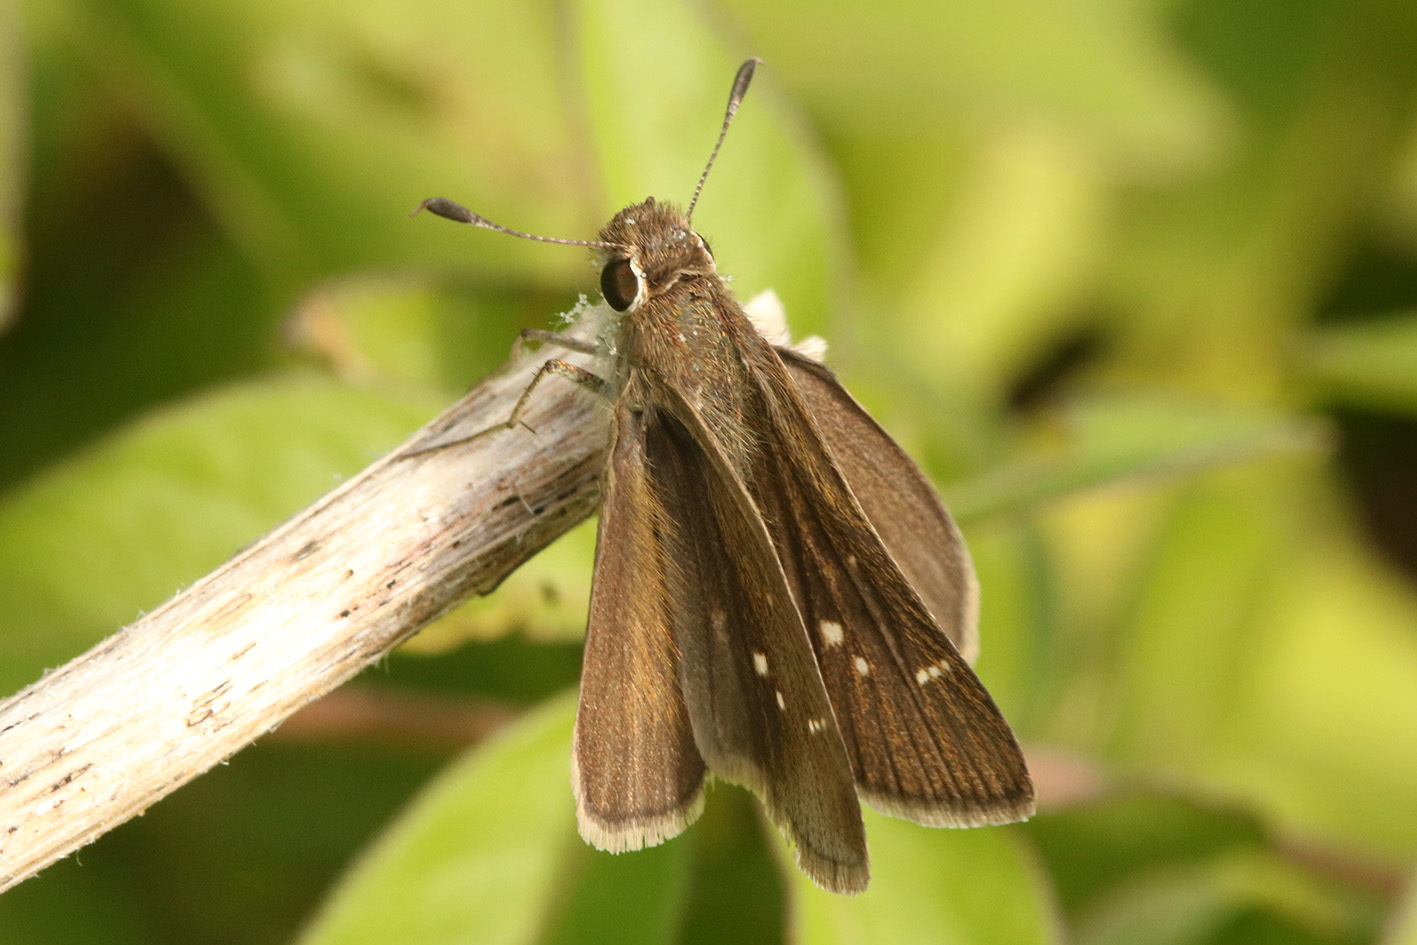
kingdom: Animalia
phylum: Arthropoda
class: Insecta
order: Lepidoptera
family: Hesperiidae
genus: Lerodea
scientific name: Lerodea eufala
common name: Eufala skipper
